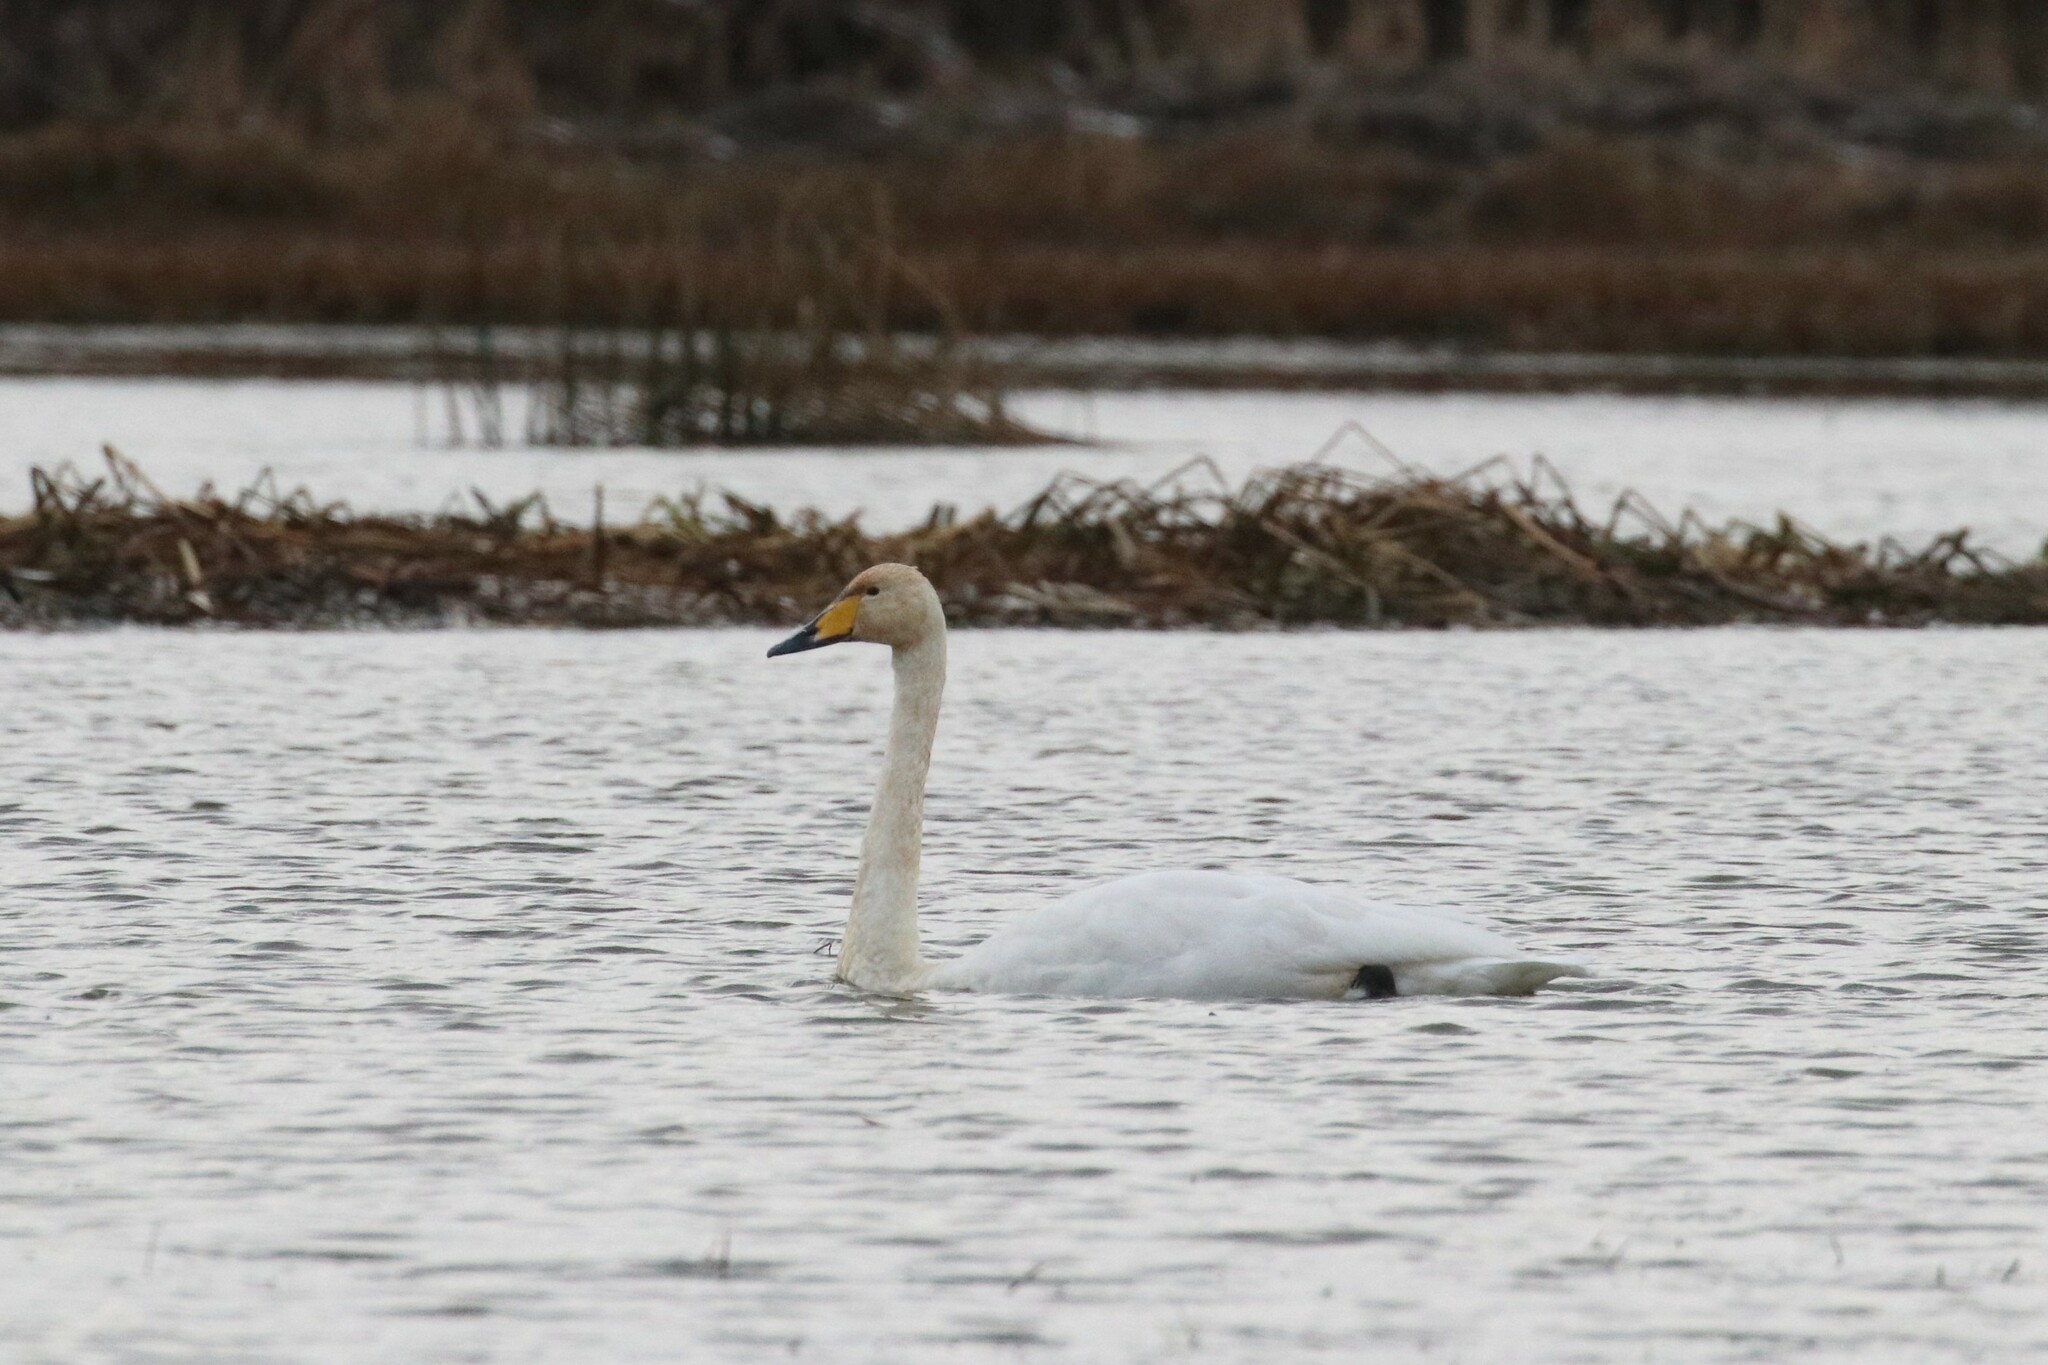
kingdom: Animalia
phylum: Chordata
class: Aves
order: Anseriformes
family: Anatidae
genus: Cygnus
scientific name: Cygnus cygnus
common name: Whooper swan
